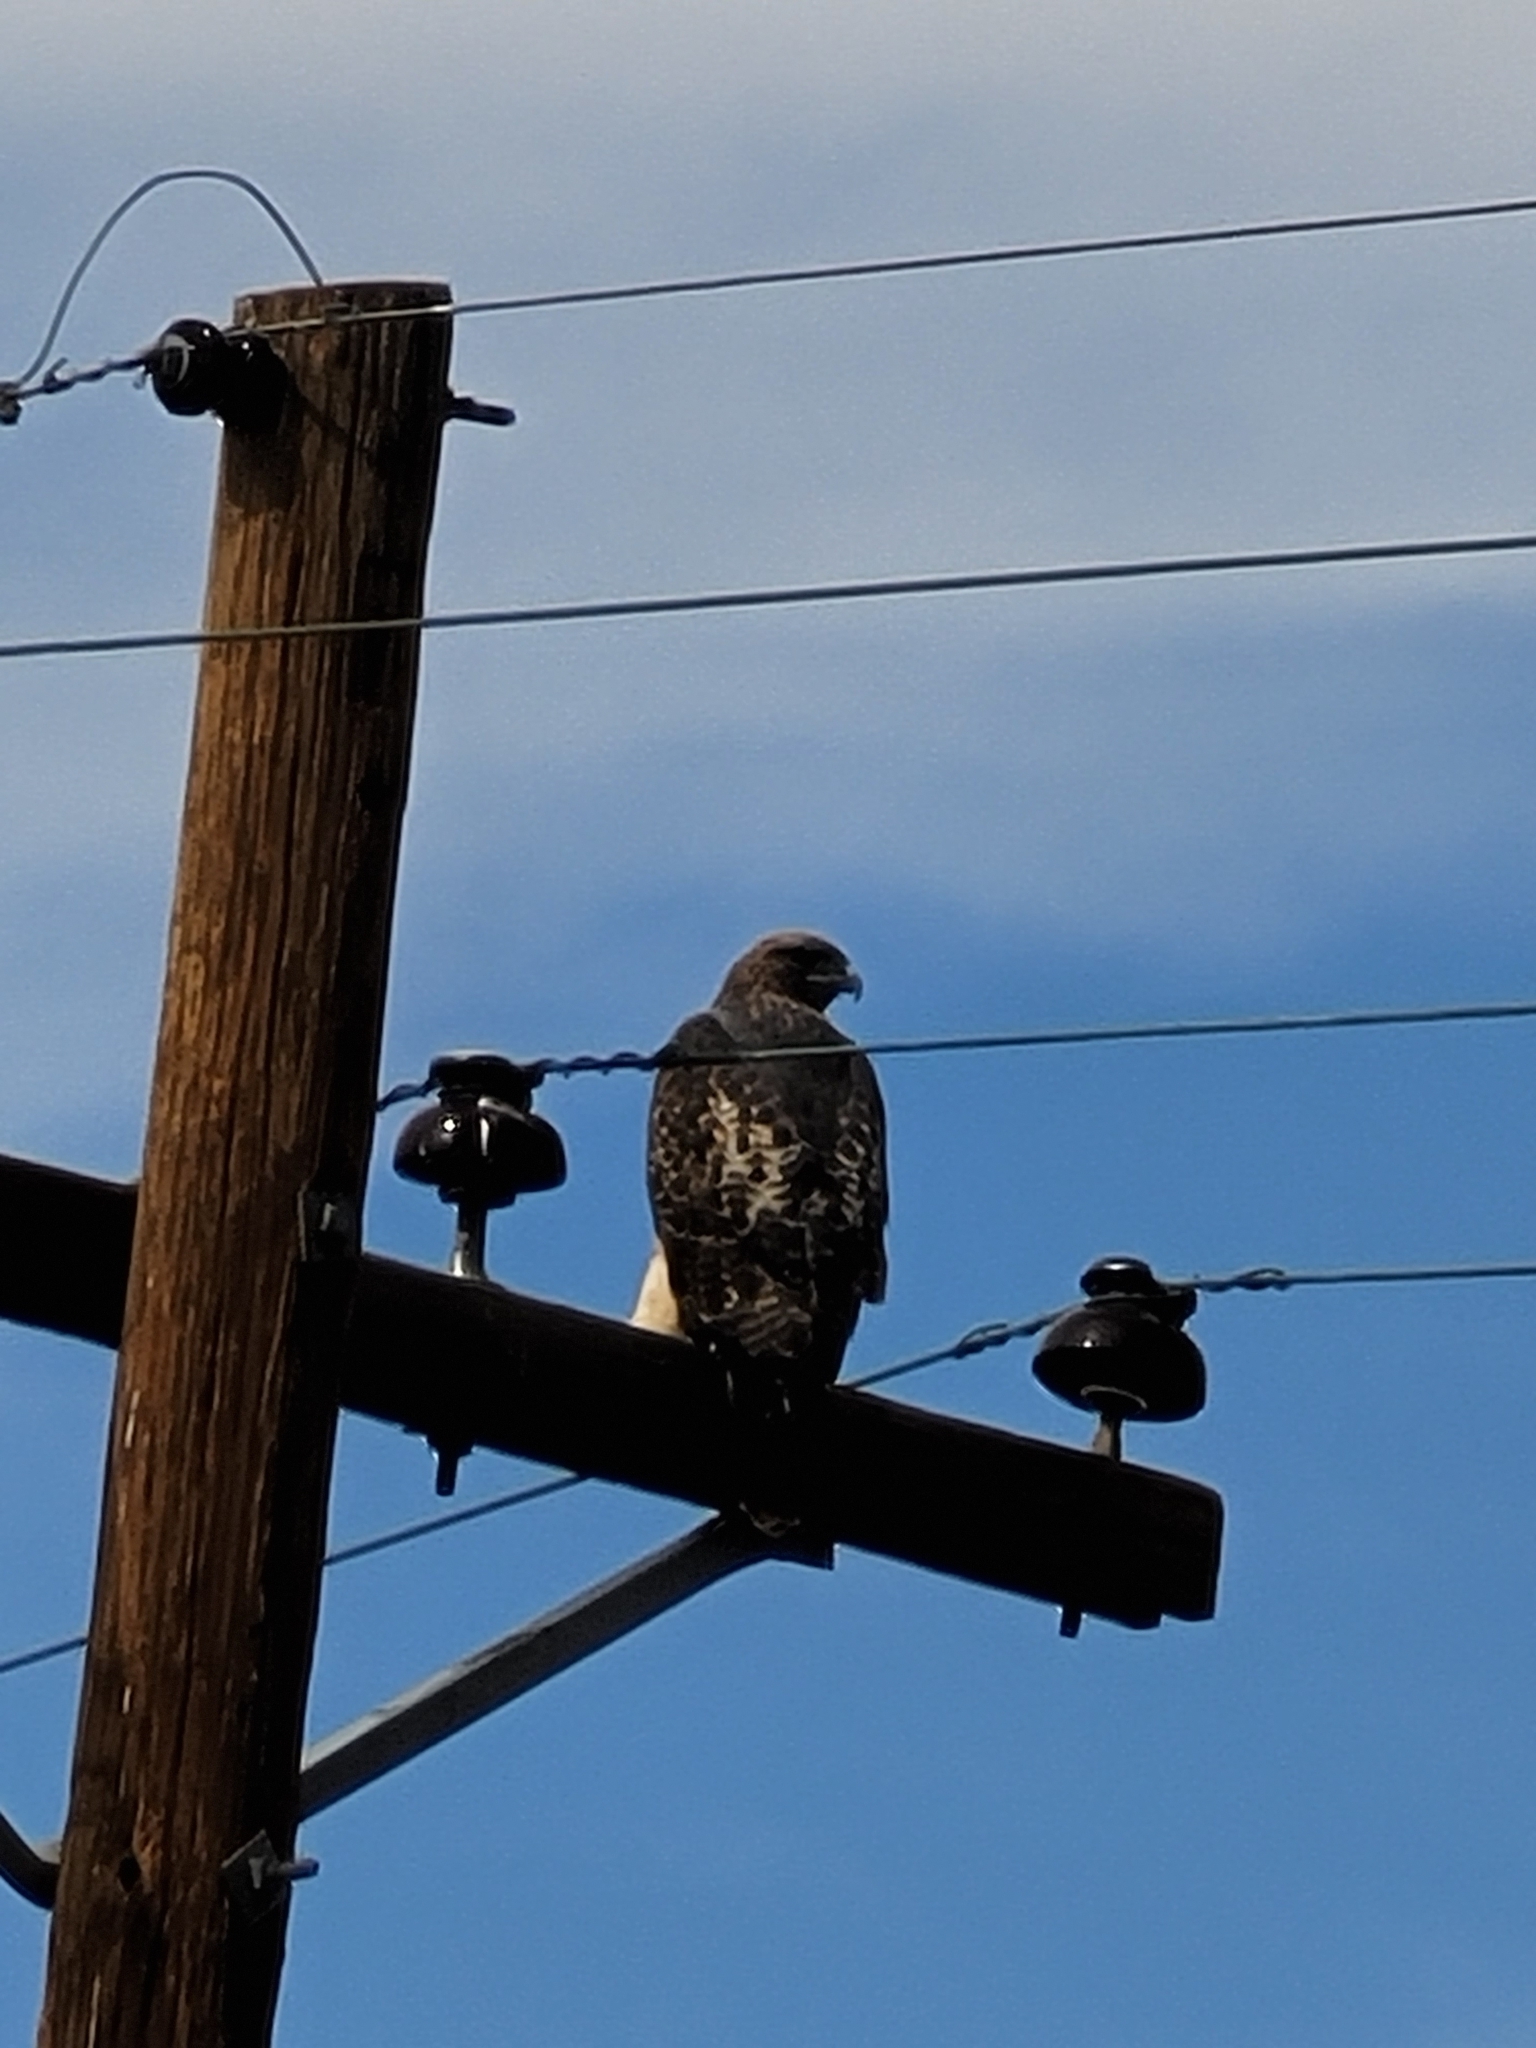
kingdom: Animalia
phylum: Chordata
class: Aves
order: Accipitriformes
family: Accipitridae
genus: Buteo
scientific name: Buteo jamaicensis
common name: Red-tailed hawk
